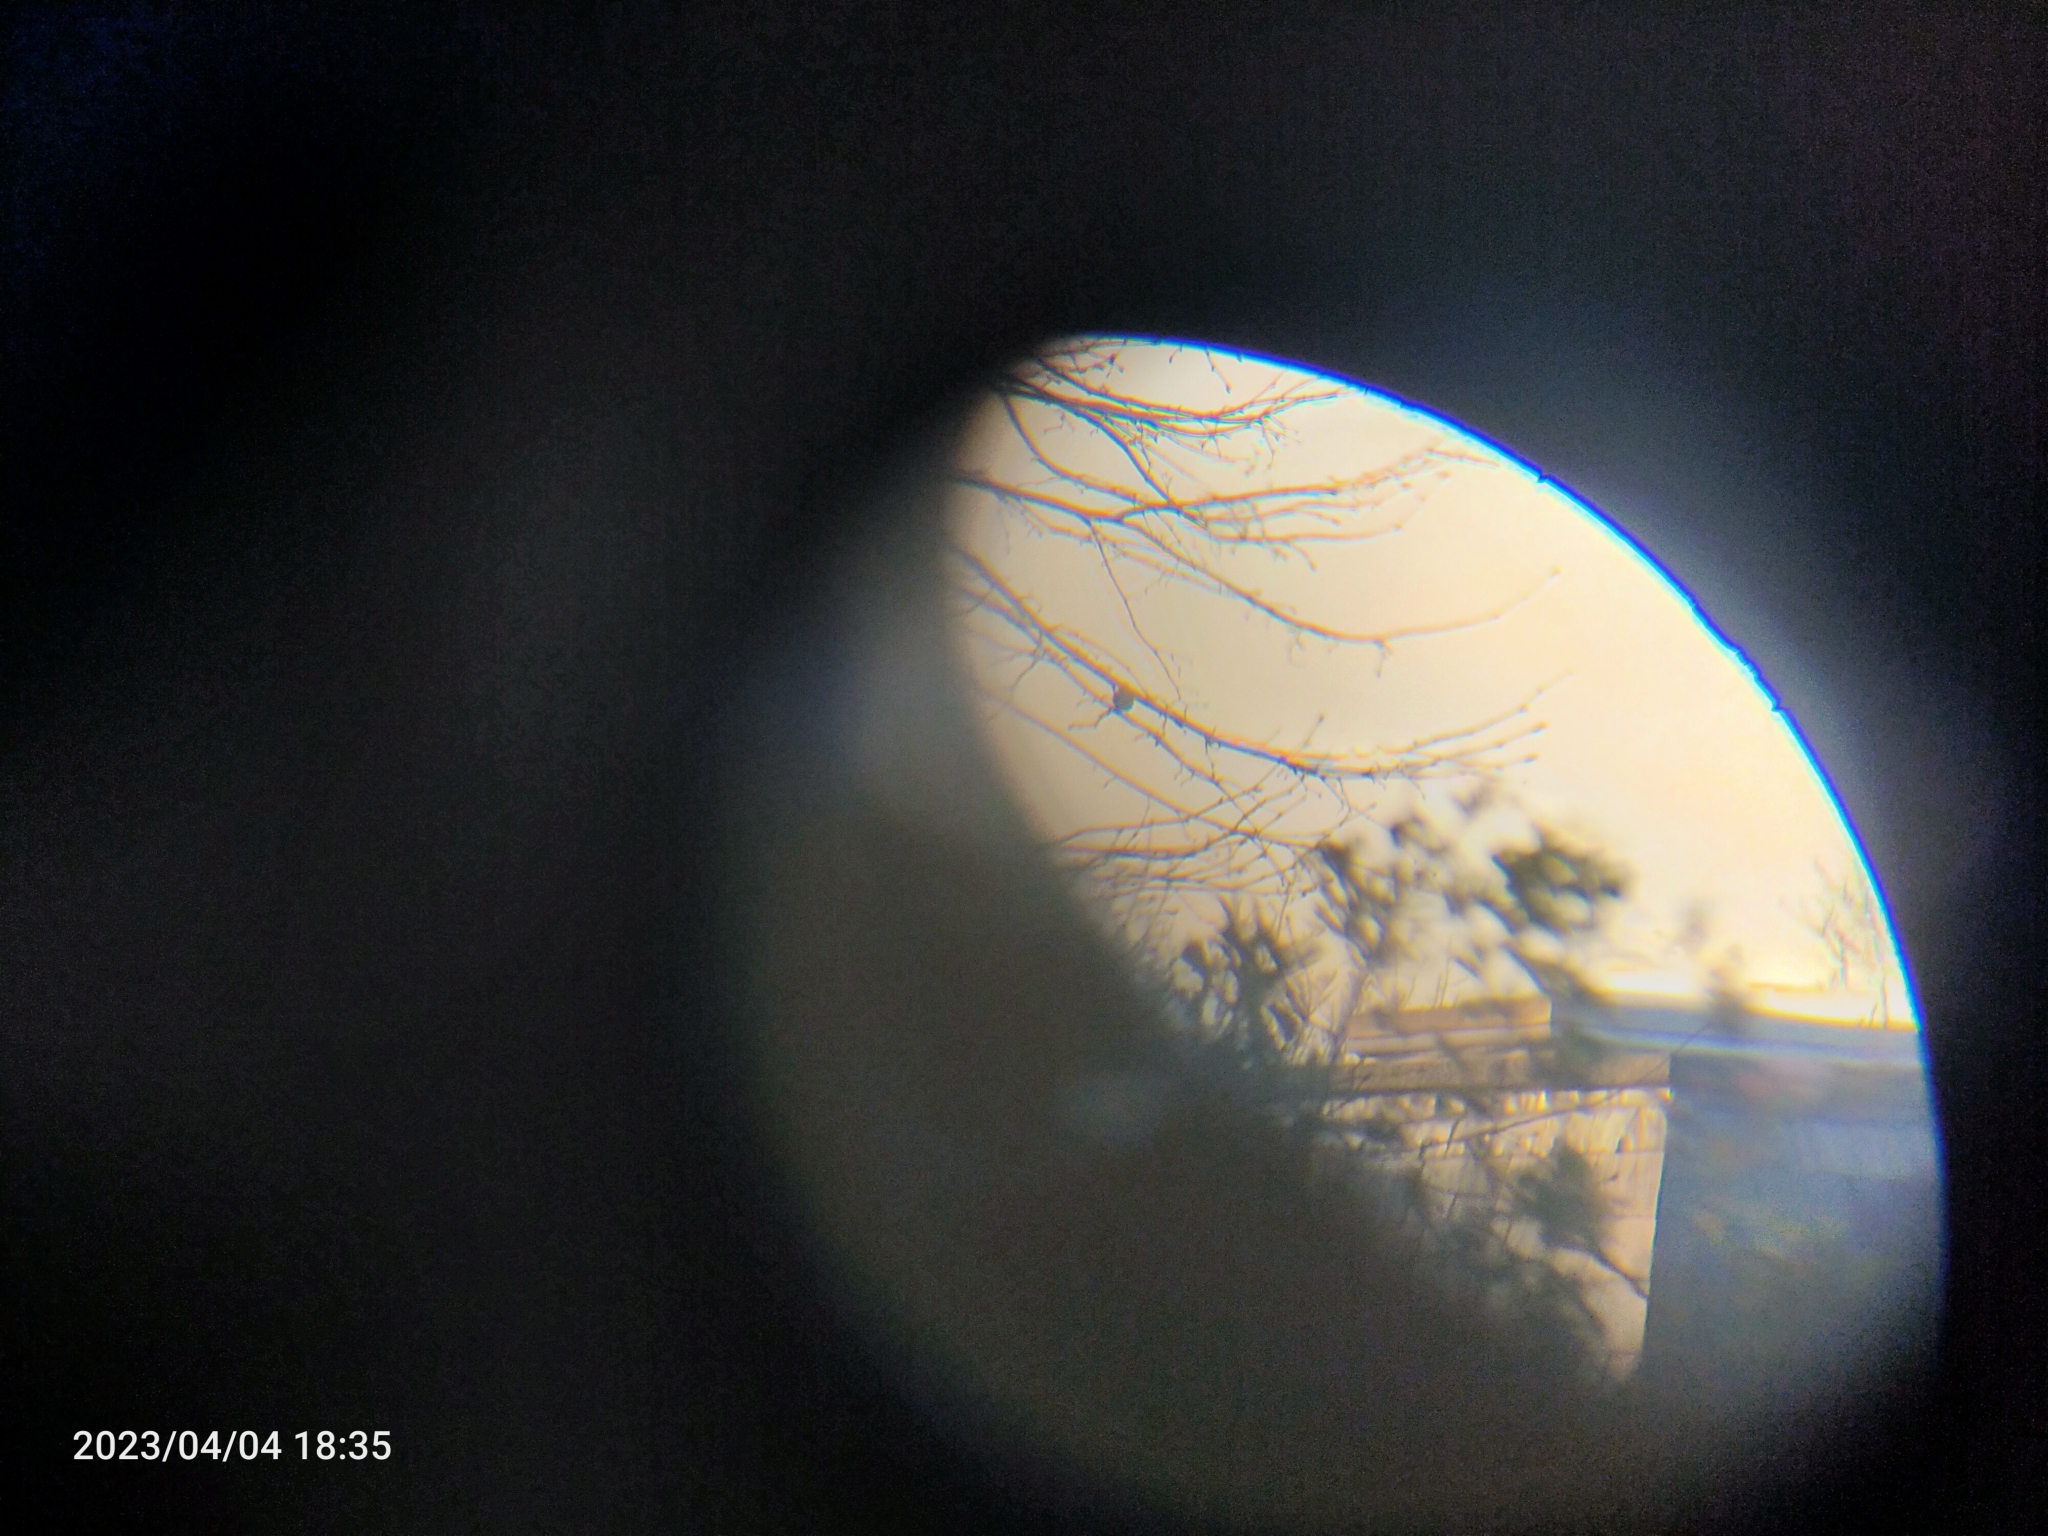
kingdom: Animalia
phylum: Chordata
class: Aves
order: Passeriformes
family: Muscicapidae
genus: Erithacus
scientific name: Erithacus rubecula
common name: European robin
